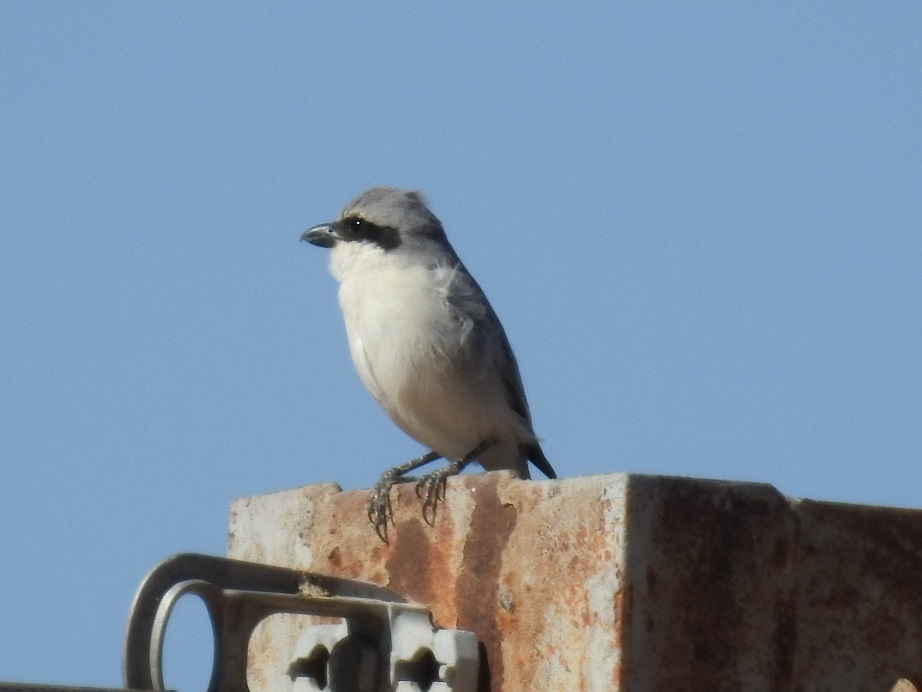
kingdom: Animalia
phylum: Chordata
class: Aves
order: Passeriformes
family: Laniidae
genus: Lanius
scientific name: Lanius excubitor
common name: Great grey shrike
